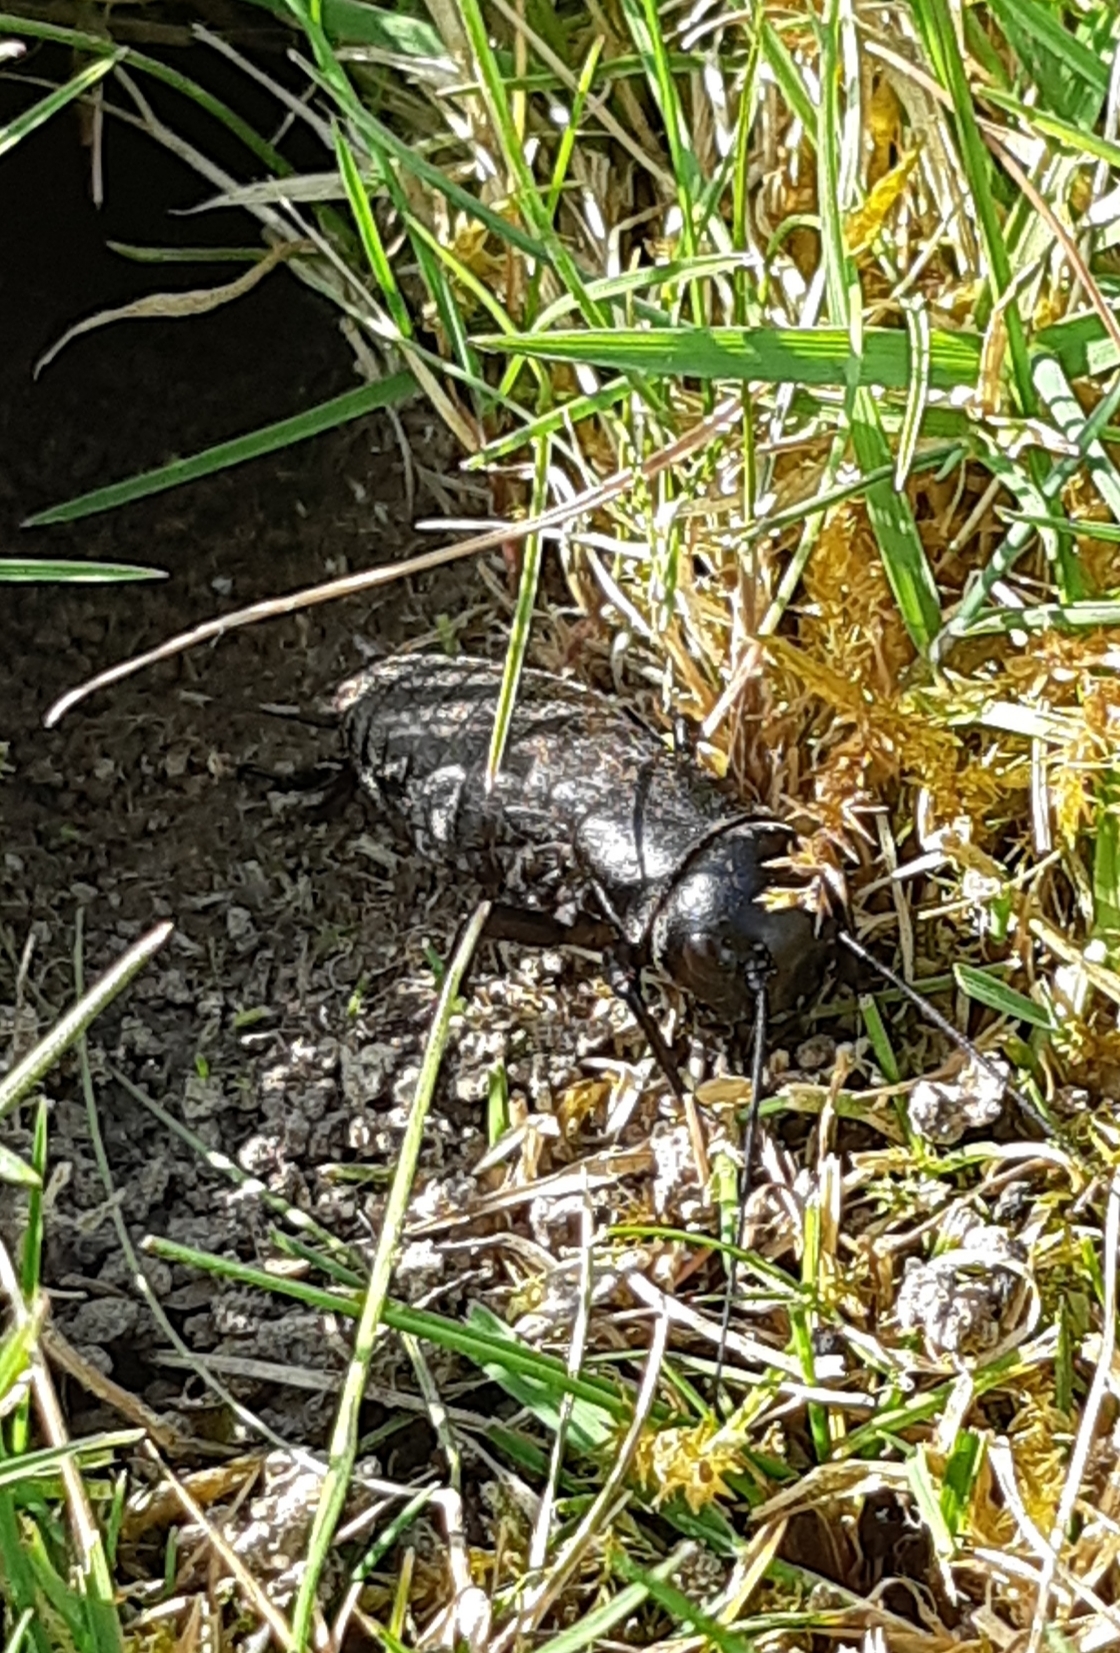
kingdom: Animalia
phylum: Arthropoda
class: Insecta
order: Orthoptera
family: Gryllidae
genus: Gryllus
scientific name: Gryllus campestris
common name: Field cricket
